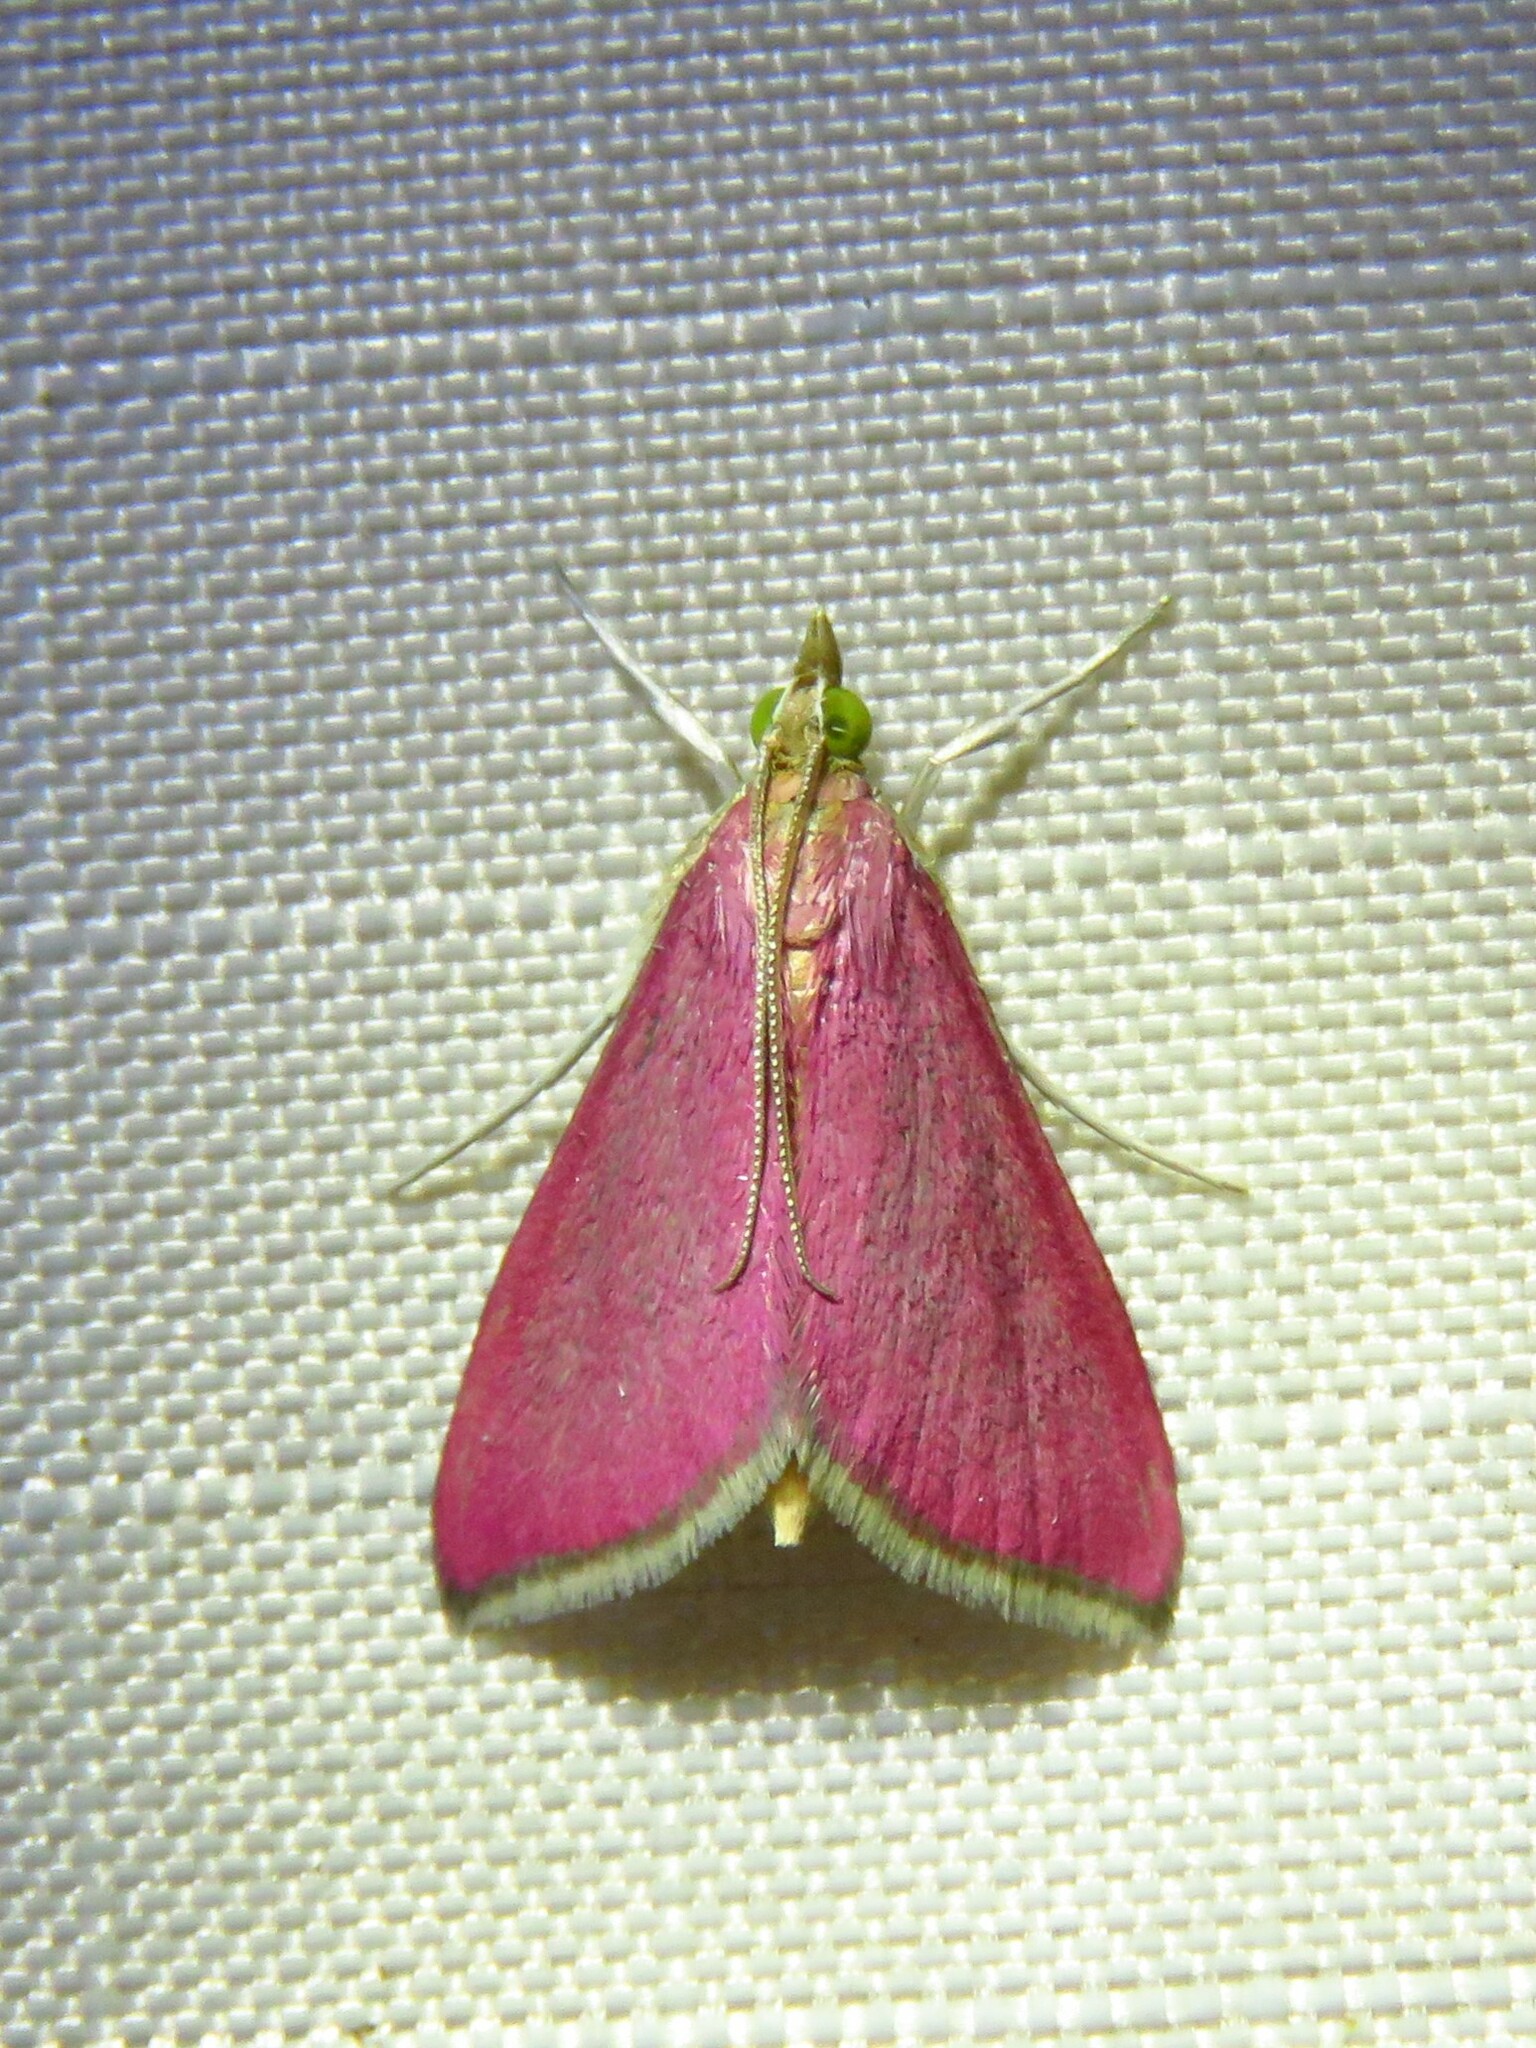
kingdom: Animalia
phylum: Arthropoda
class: Insecta
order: Lepidoptera
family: Crambidae
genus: Pyrausta
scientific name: Pyrausta inornatalis
